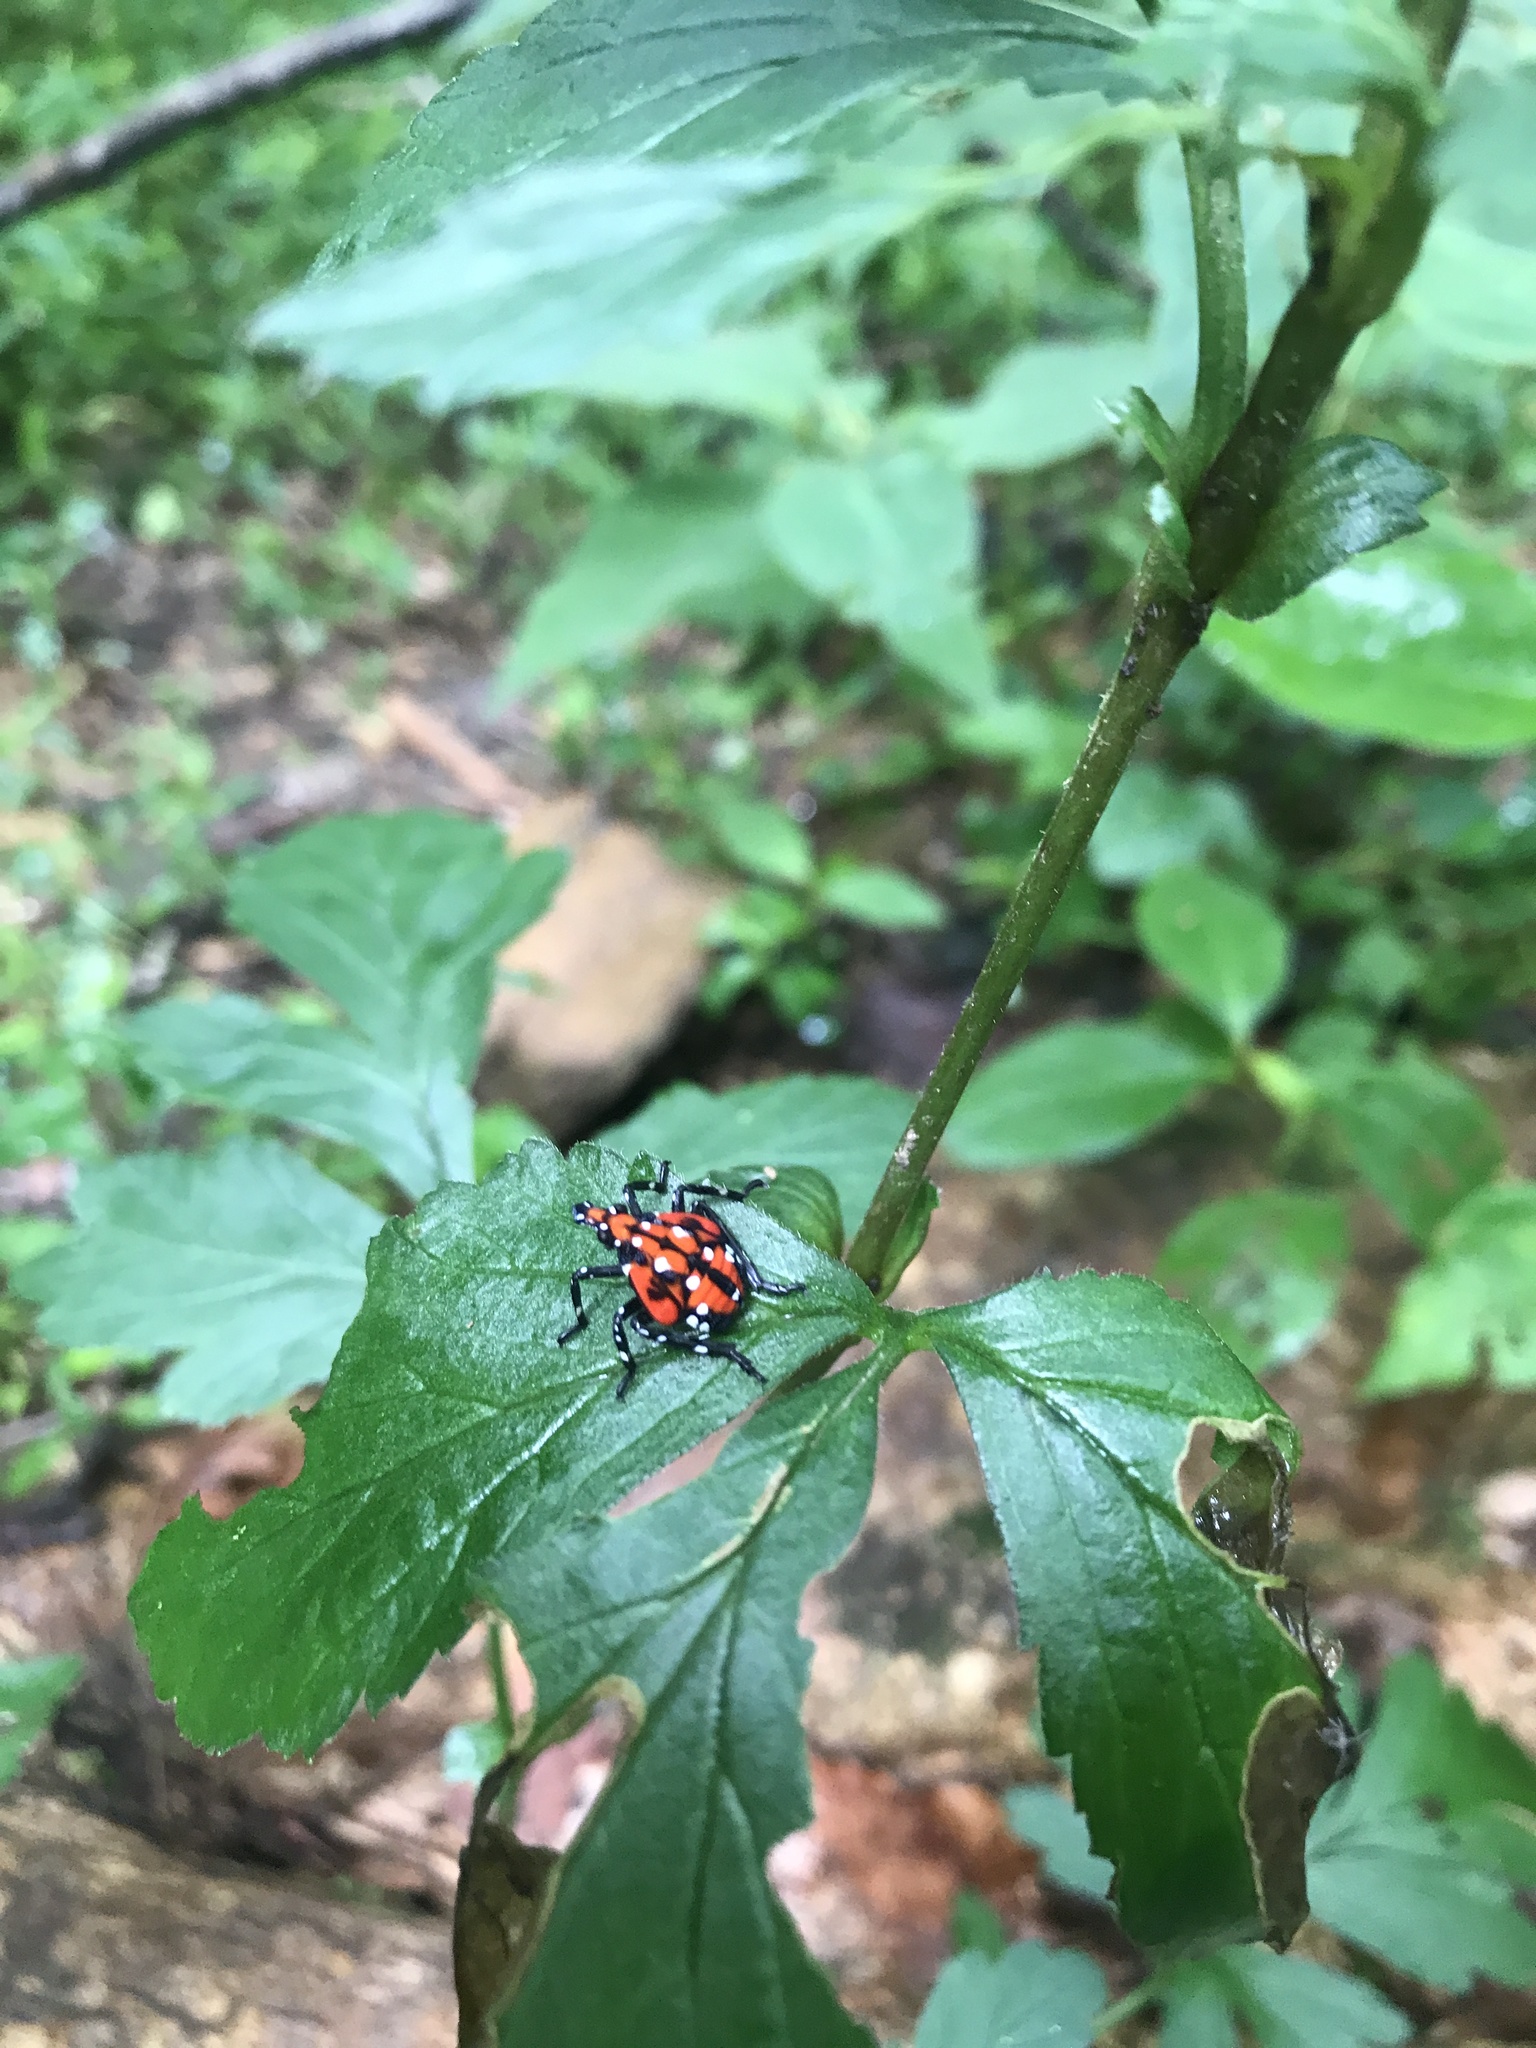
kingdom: Animalia
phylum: Arthropoda
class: Insecta
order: Hemiptera
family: Fulgoridae
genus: Lycorma
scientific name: Lycorma delicatula
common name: Spotted lanternfly
